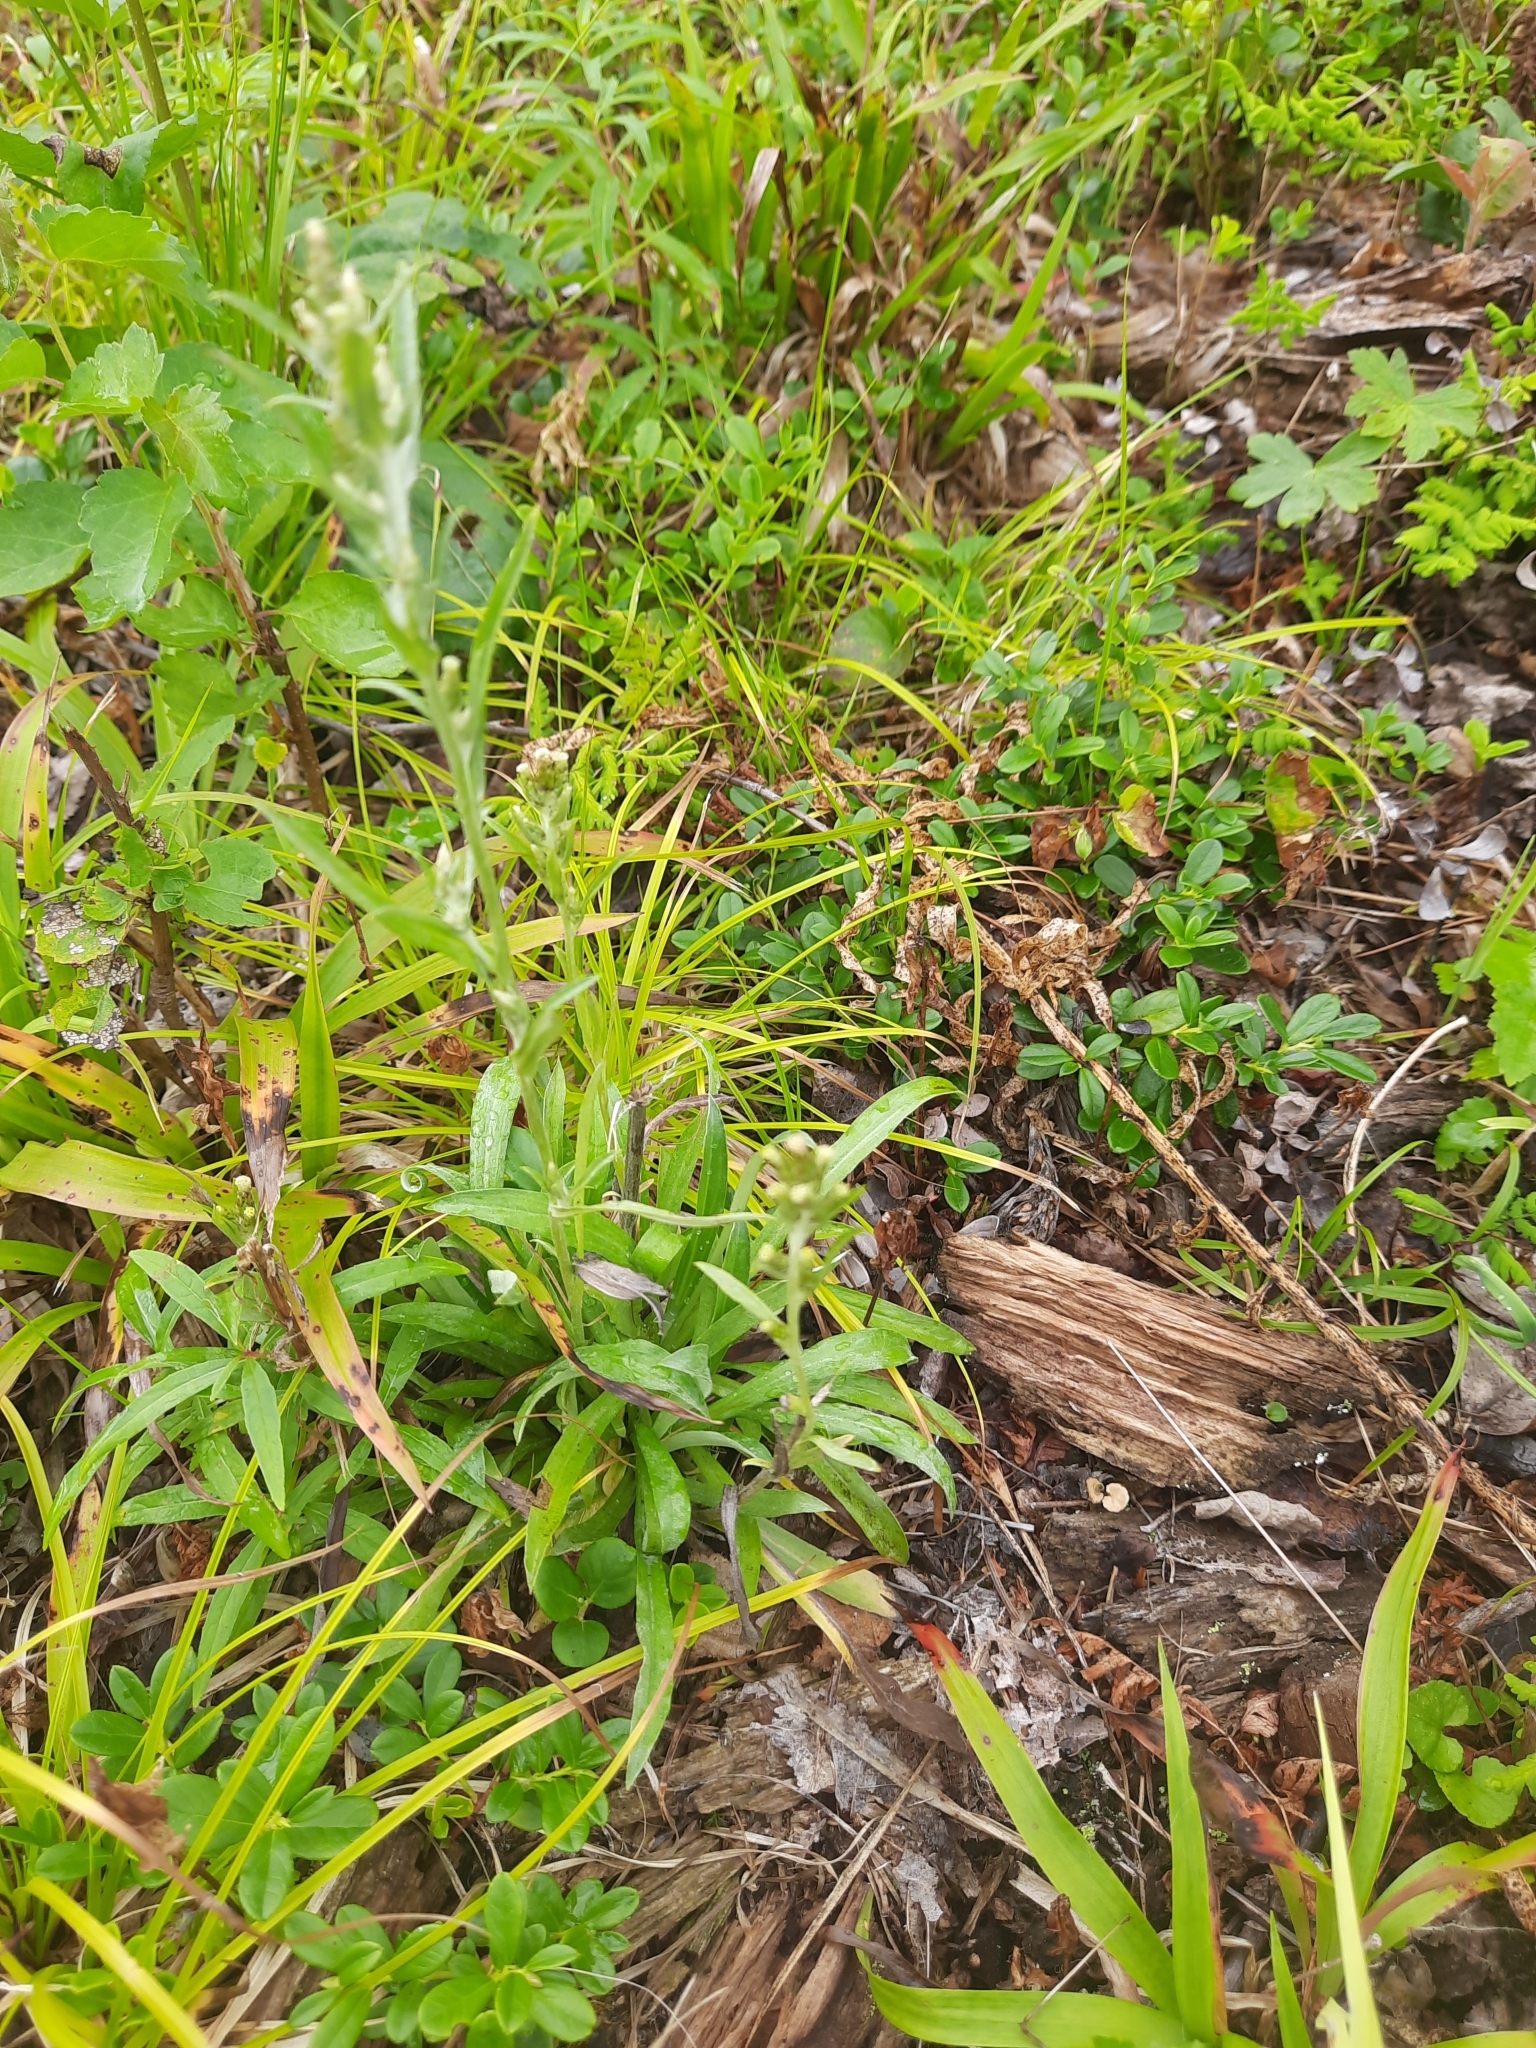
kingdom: Plantae
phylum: Tracheophyta
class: Magnoliopsida
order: Asterales
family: Asteraceae
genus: Omalotheca
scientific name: Omalotheca sylvatica
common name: Heath cudweed
